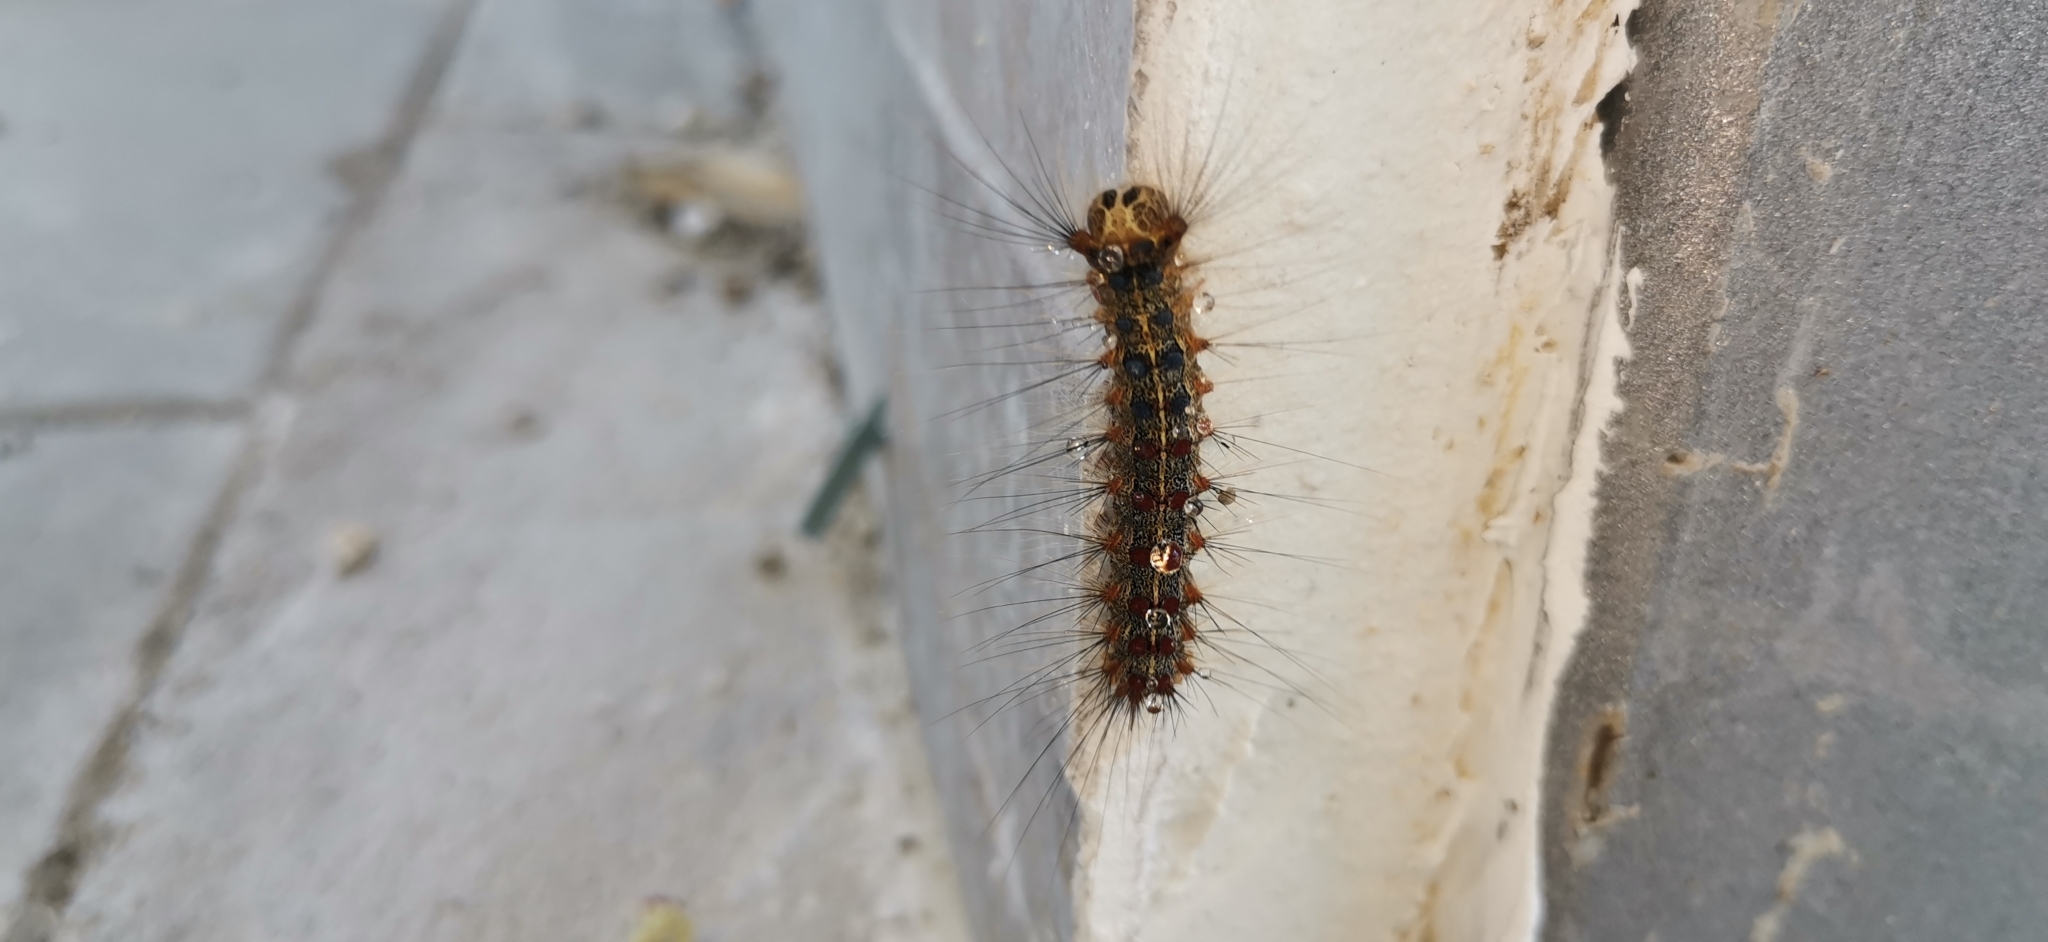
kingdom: Animalia
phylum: Arthropoda
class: Insecta
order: Lepidoptera
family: Erebidae
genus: Lymantria
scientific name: Lymantria dispar
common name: Gypsy moth
